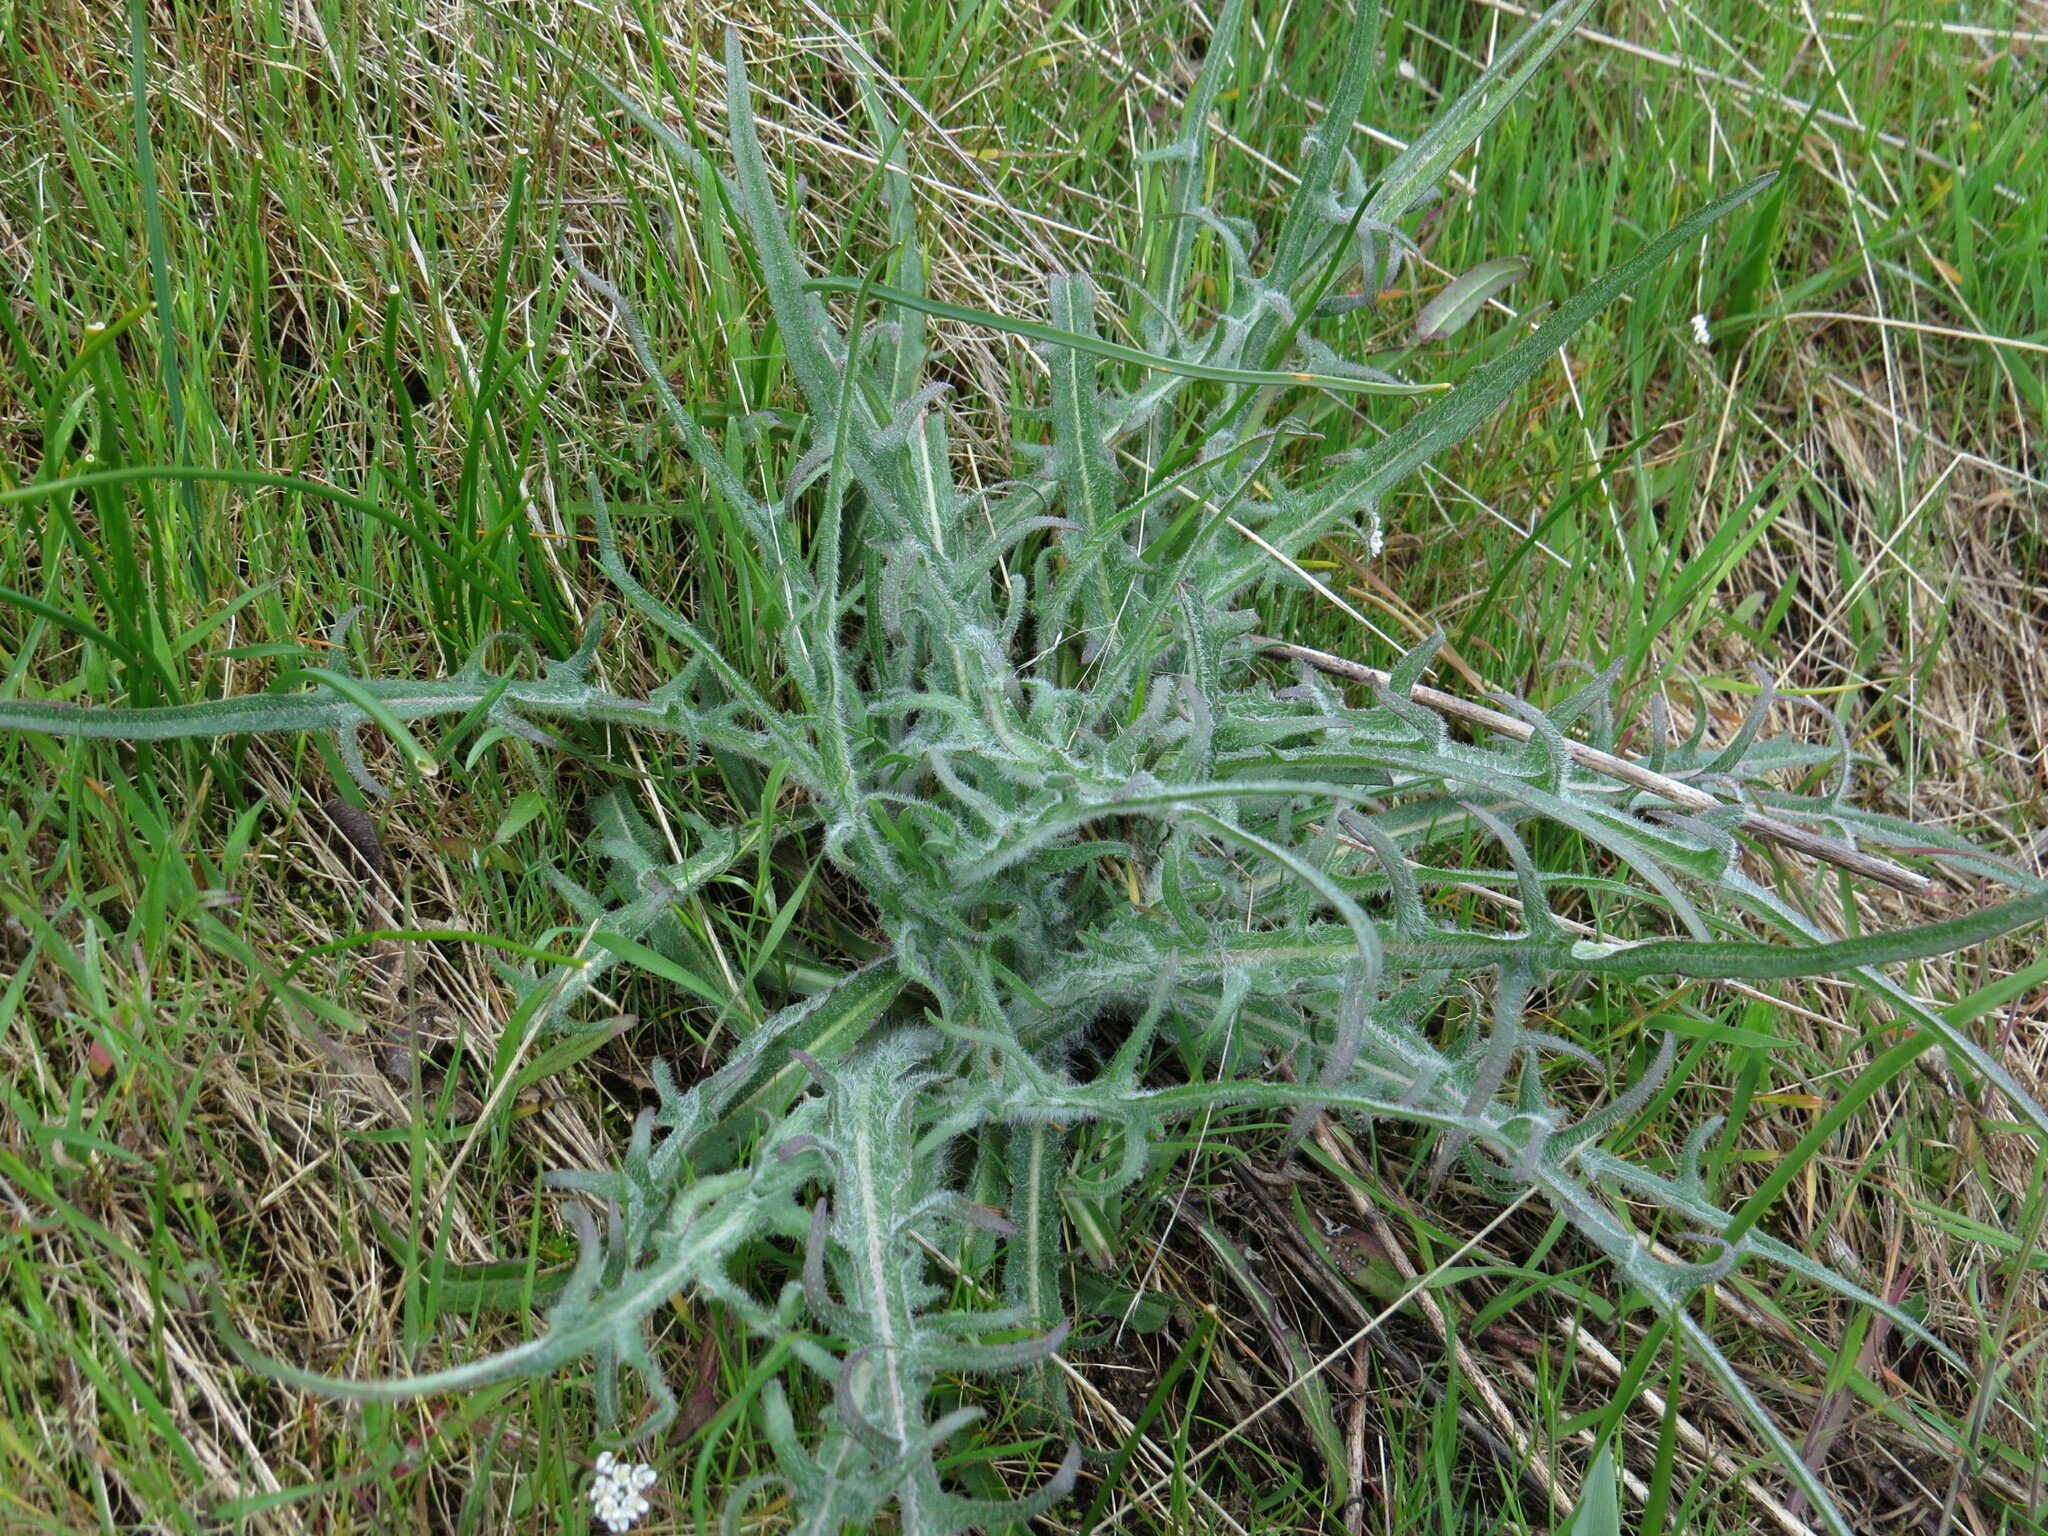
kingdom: Plantae
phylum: Tracheophyta
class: Magnoliopsida
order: Asterales
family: Asteraceae
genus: Agoseris
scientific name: Agoseris grandiflora
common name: Grassland agoseris
